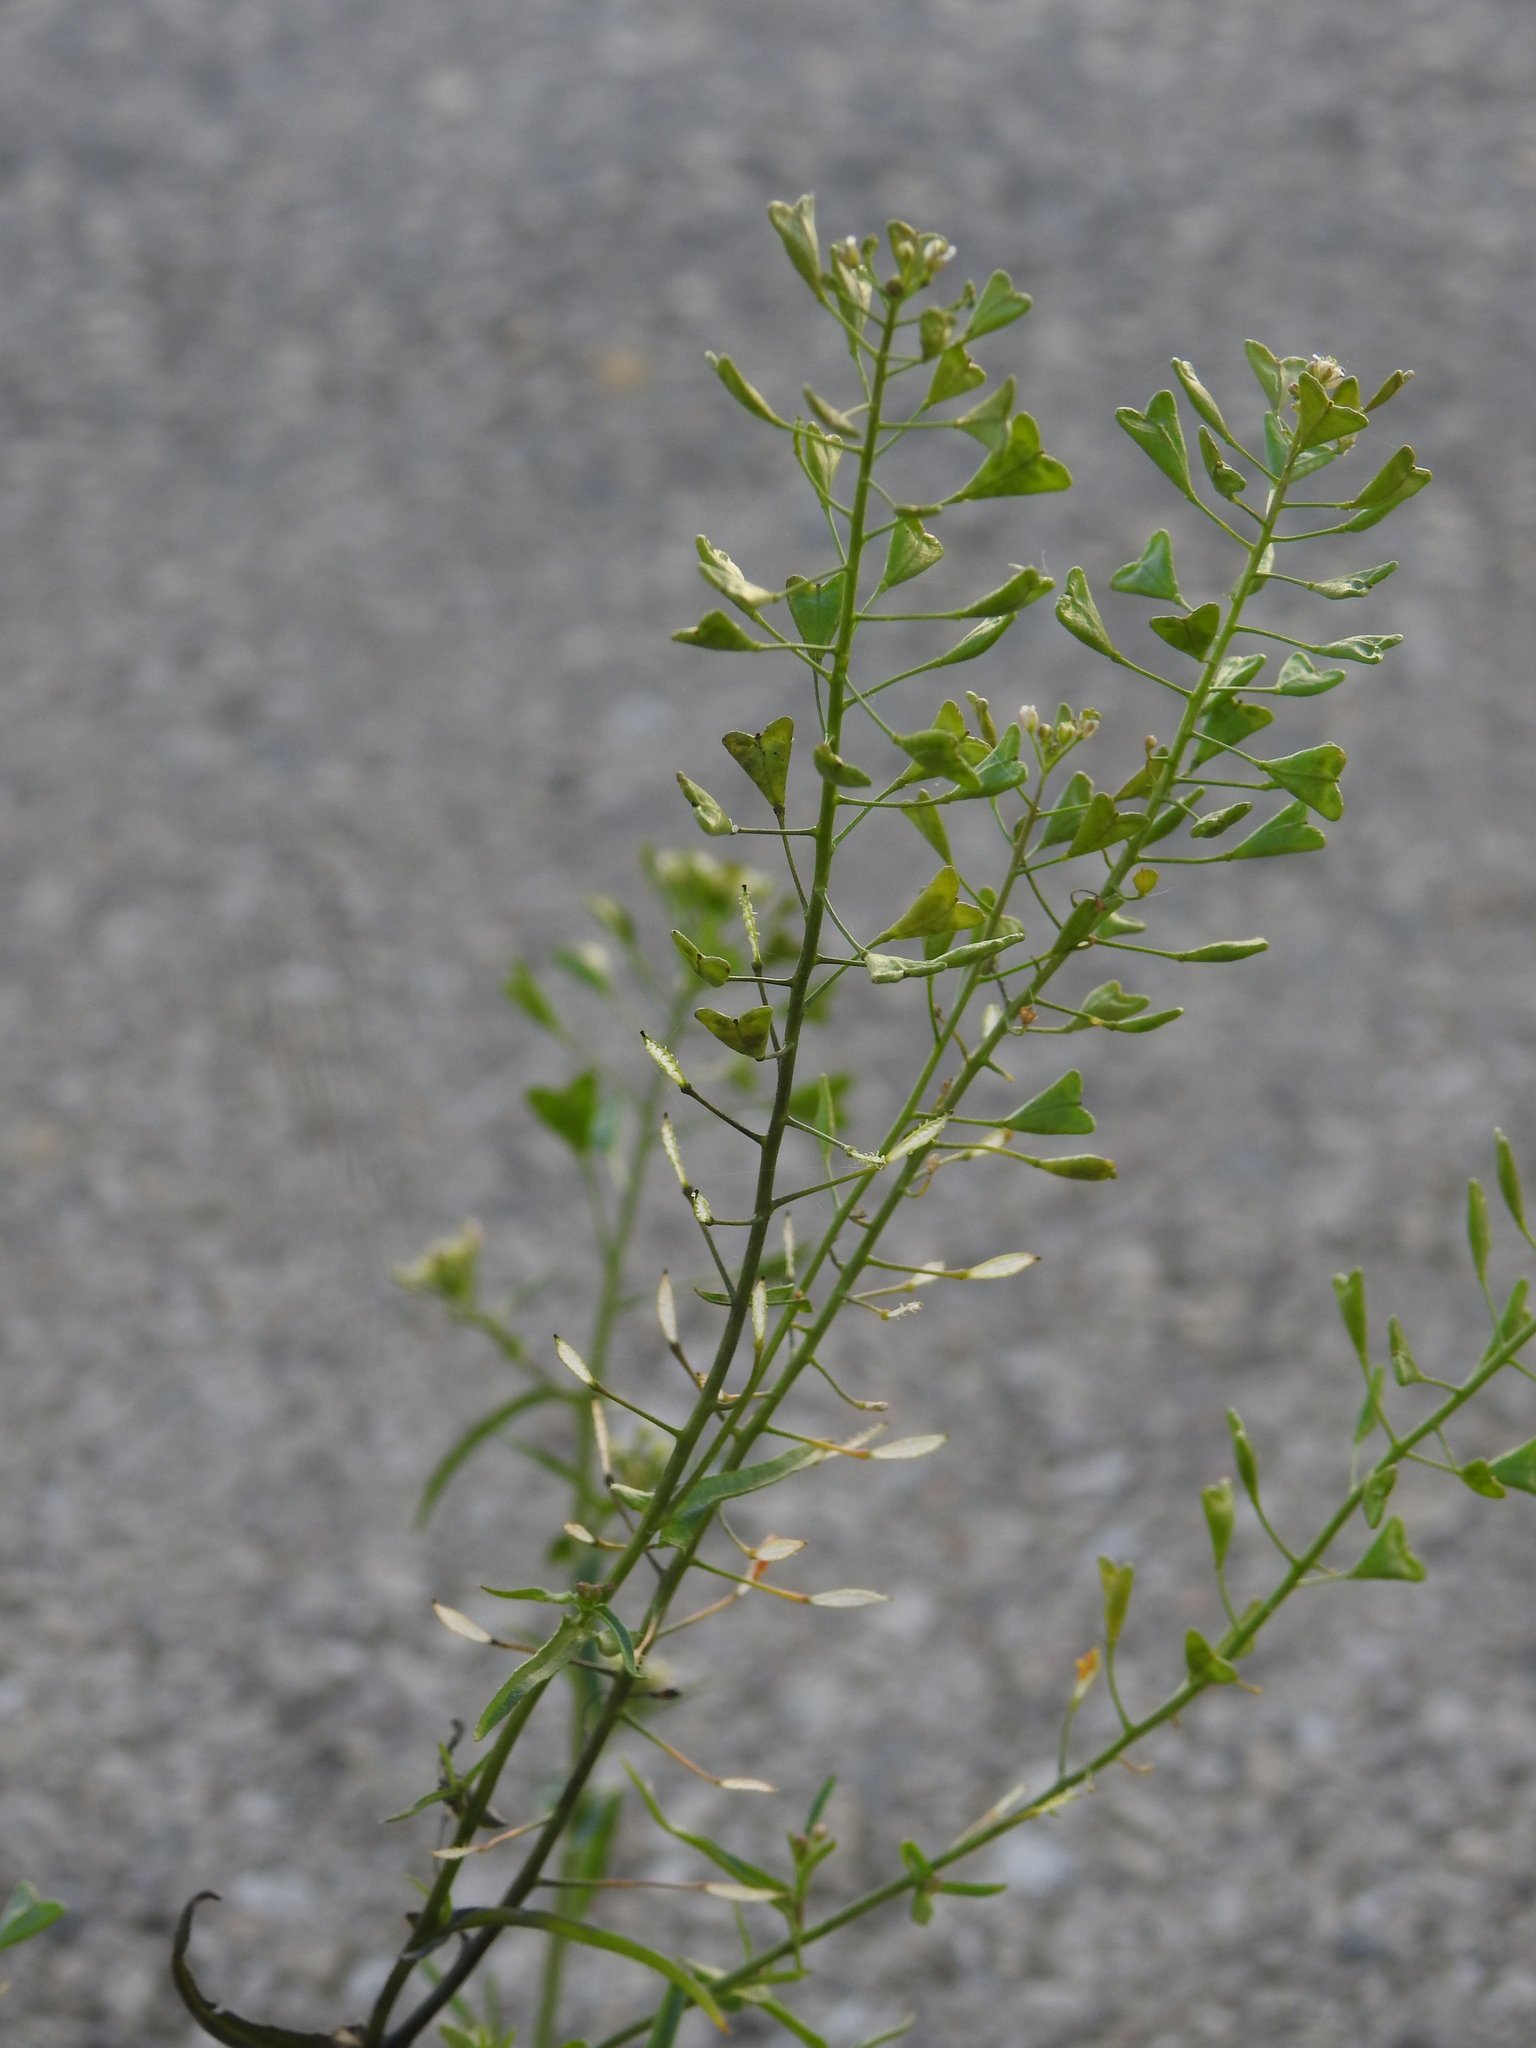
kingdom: Plantae
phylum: Tracheophyta
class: Magnoliopsida
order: Brassicales
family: Brassicaceae
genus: Capsella
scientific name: Capsella bursa-pastoris
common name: Shepherd's purse
